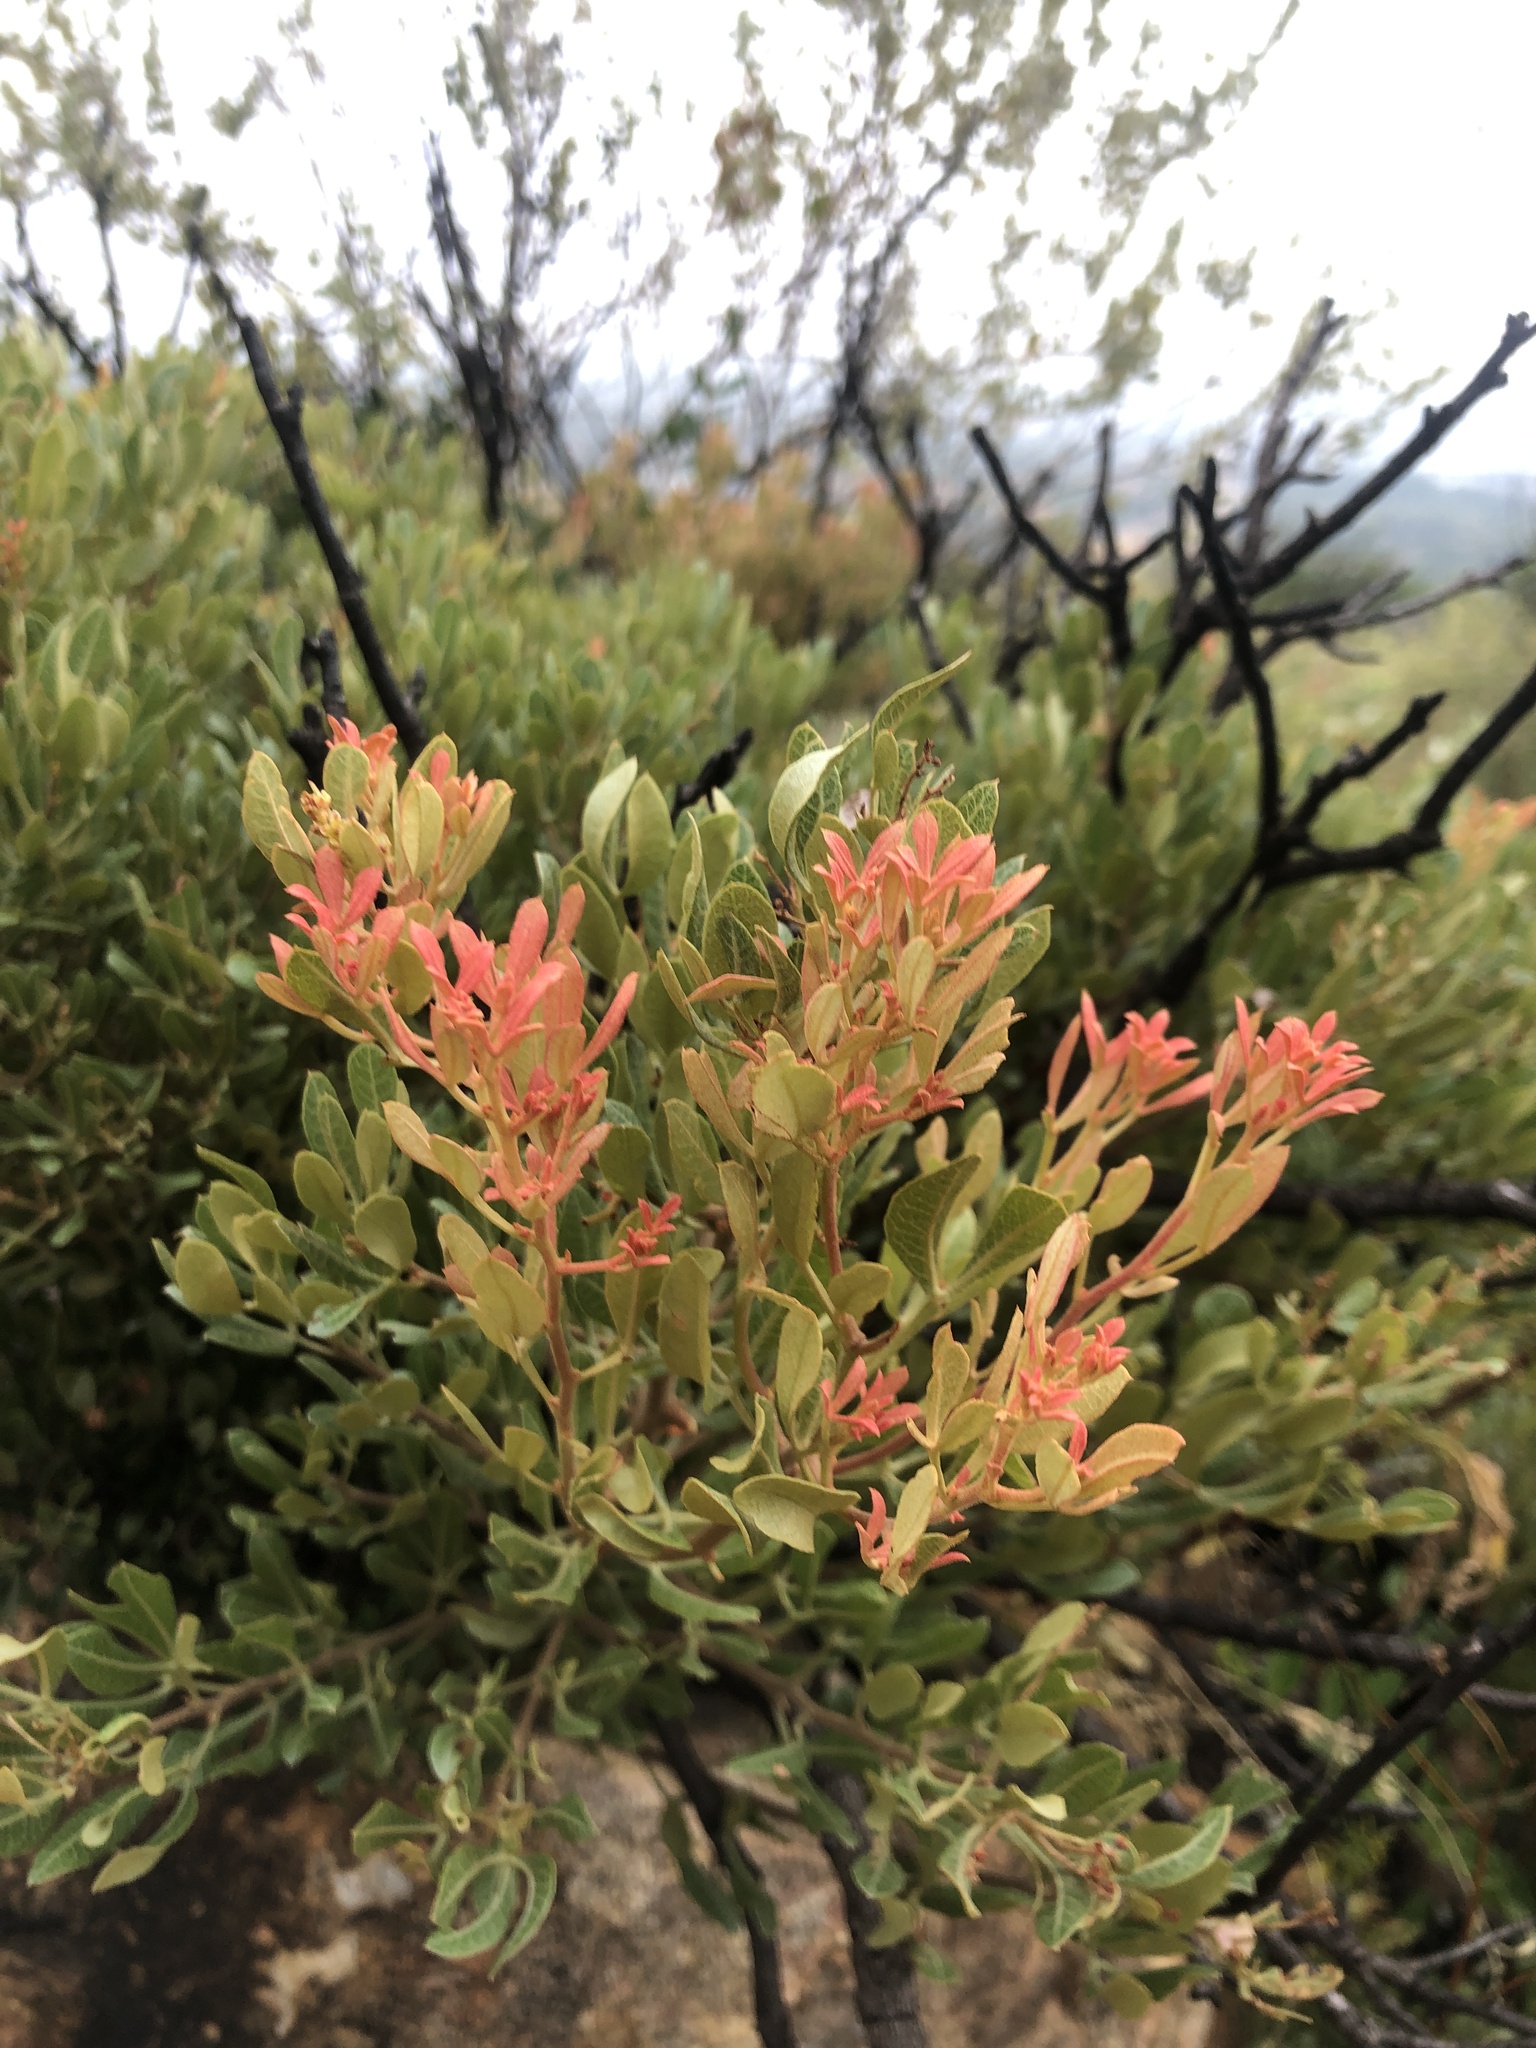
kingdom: Plantae
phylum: Tracheophyta
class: Magnoliopsida
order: Sapindales
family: Anacardiaceae
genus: Searsia
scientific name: Searsia magalismontana
